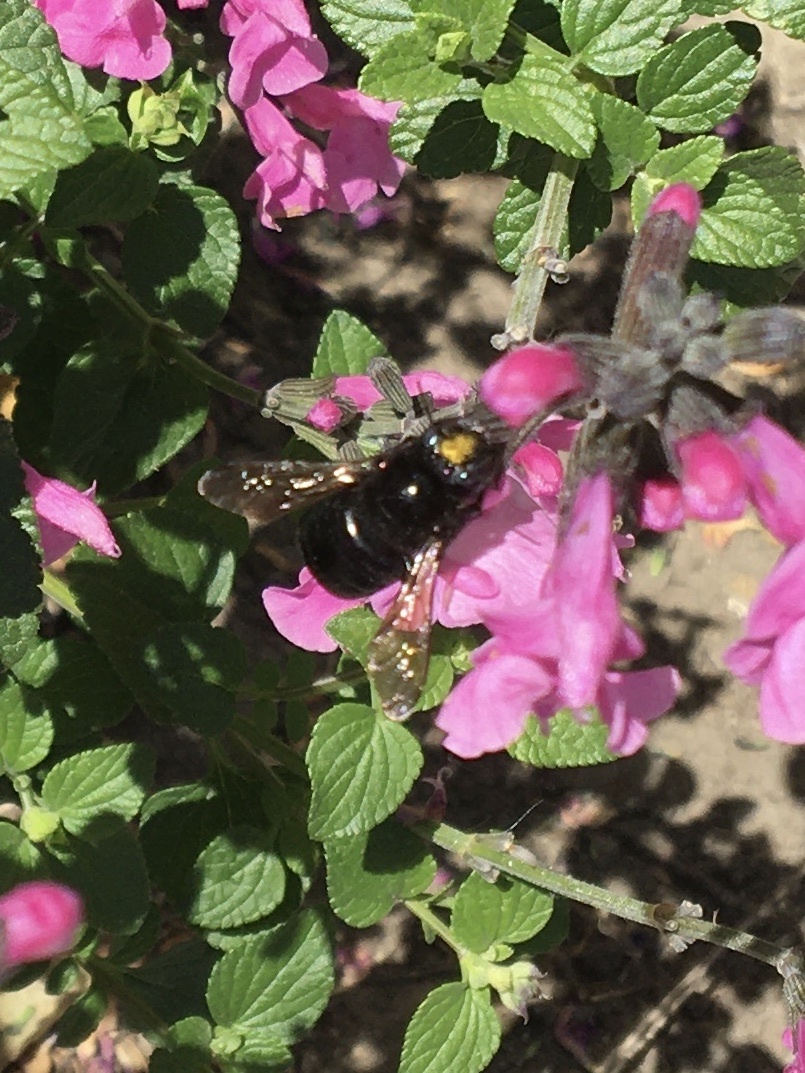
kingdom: Animalia
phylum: Arthropoda
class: Insecta
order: Hymenoptera
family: Apidae
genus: Xylocopa
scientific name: Xylocopa tabaniformis
